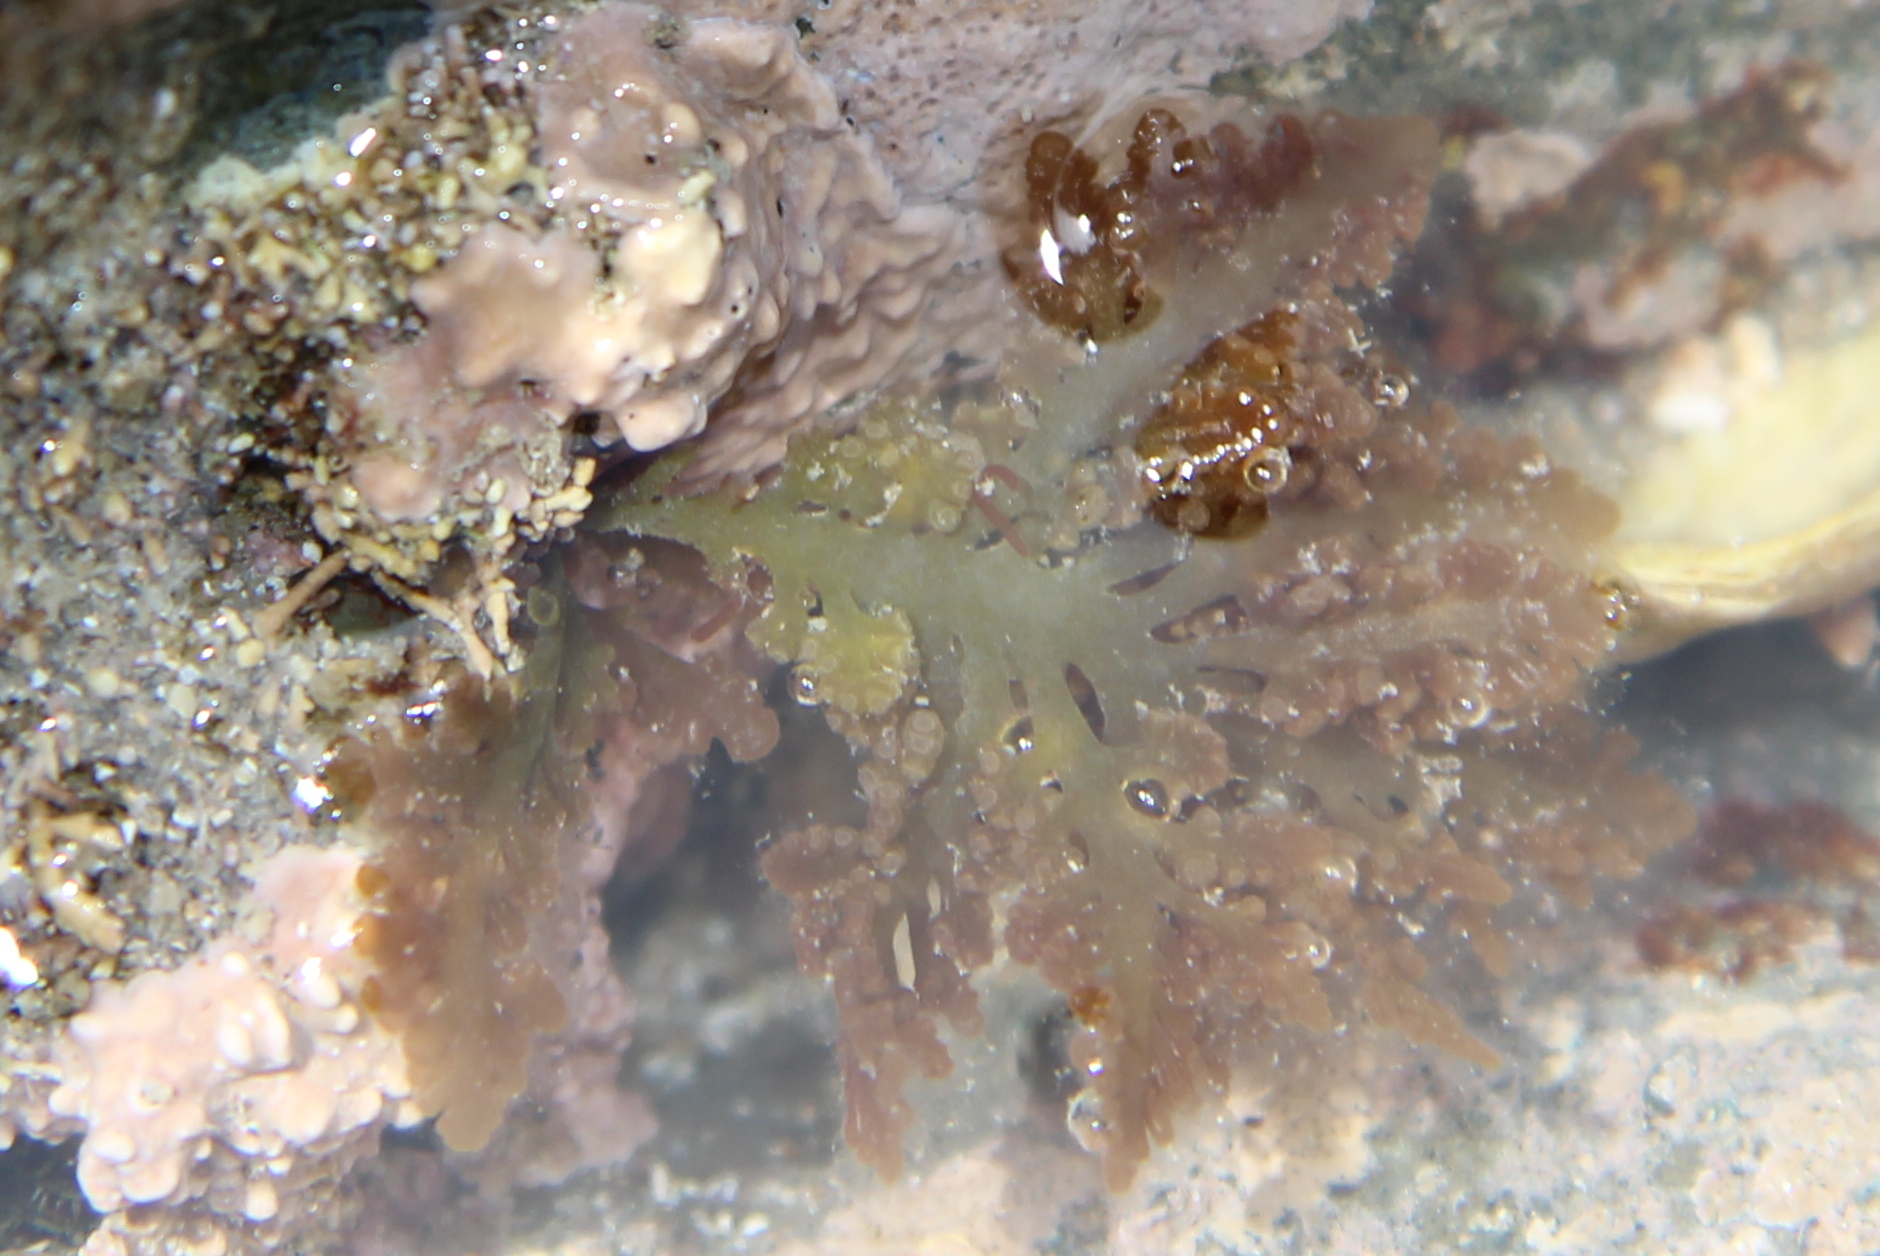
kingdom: Plantae
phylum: Rhodophyta
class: Florideophyceae
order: Ceramiales
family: Rhodomelaceae
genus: Laurencia
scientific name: Laurencia distichophylla
